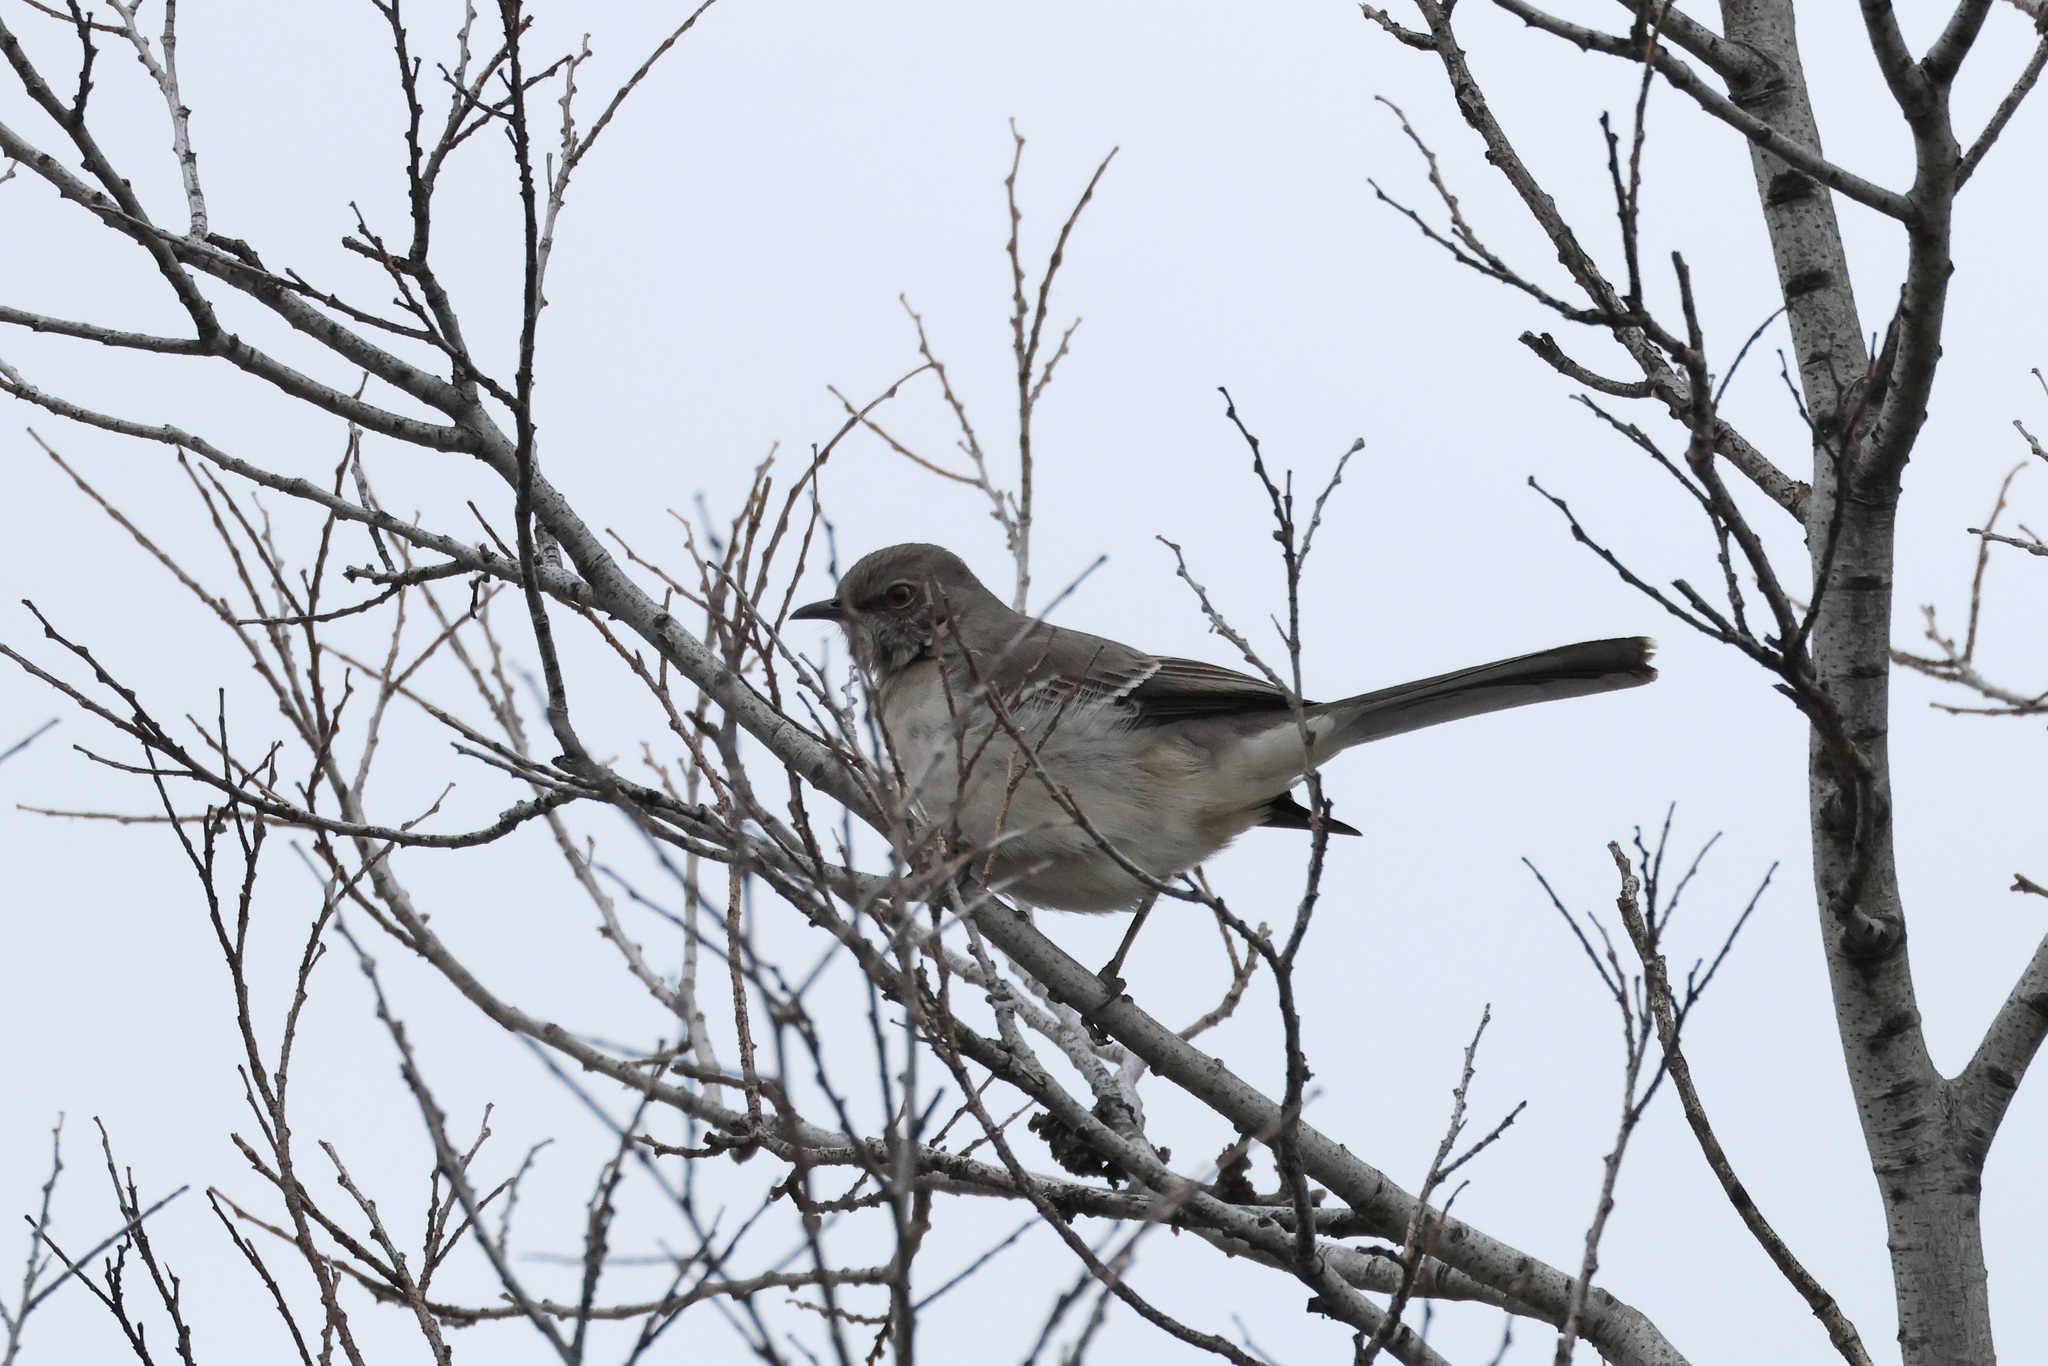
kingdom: Animalia
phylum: Chordata
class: Aves
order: Passeriformes
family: Mimidae
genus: Mimus
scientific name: Mimus polyglottos
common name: Northern mockingbird
